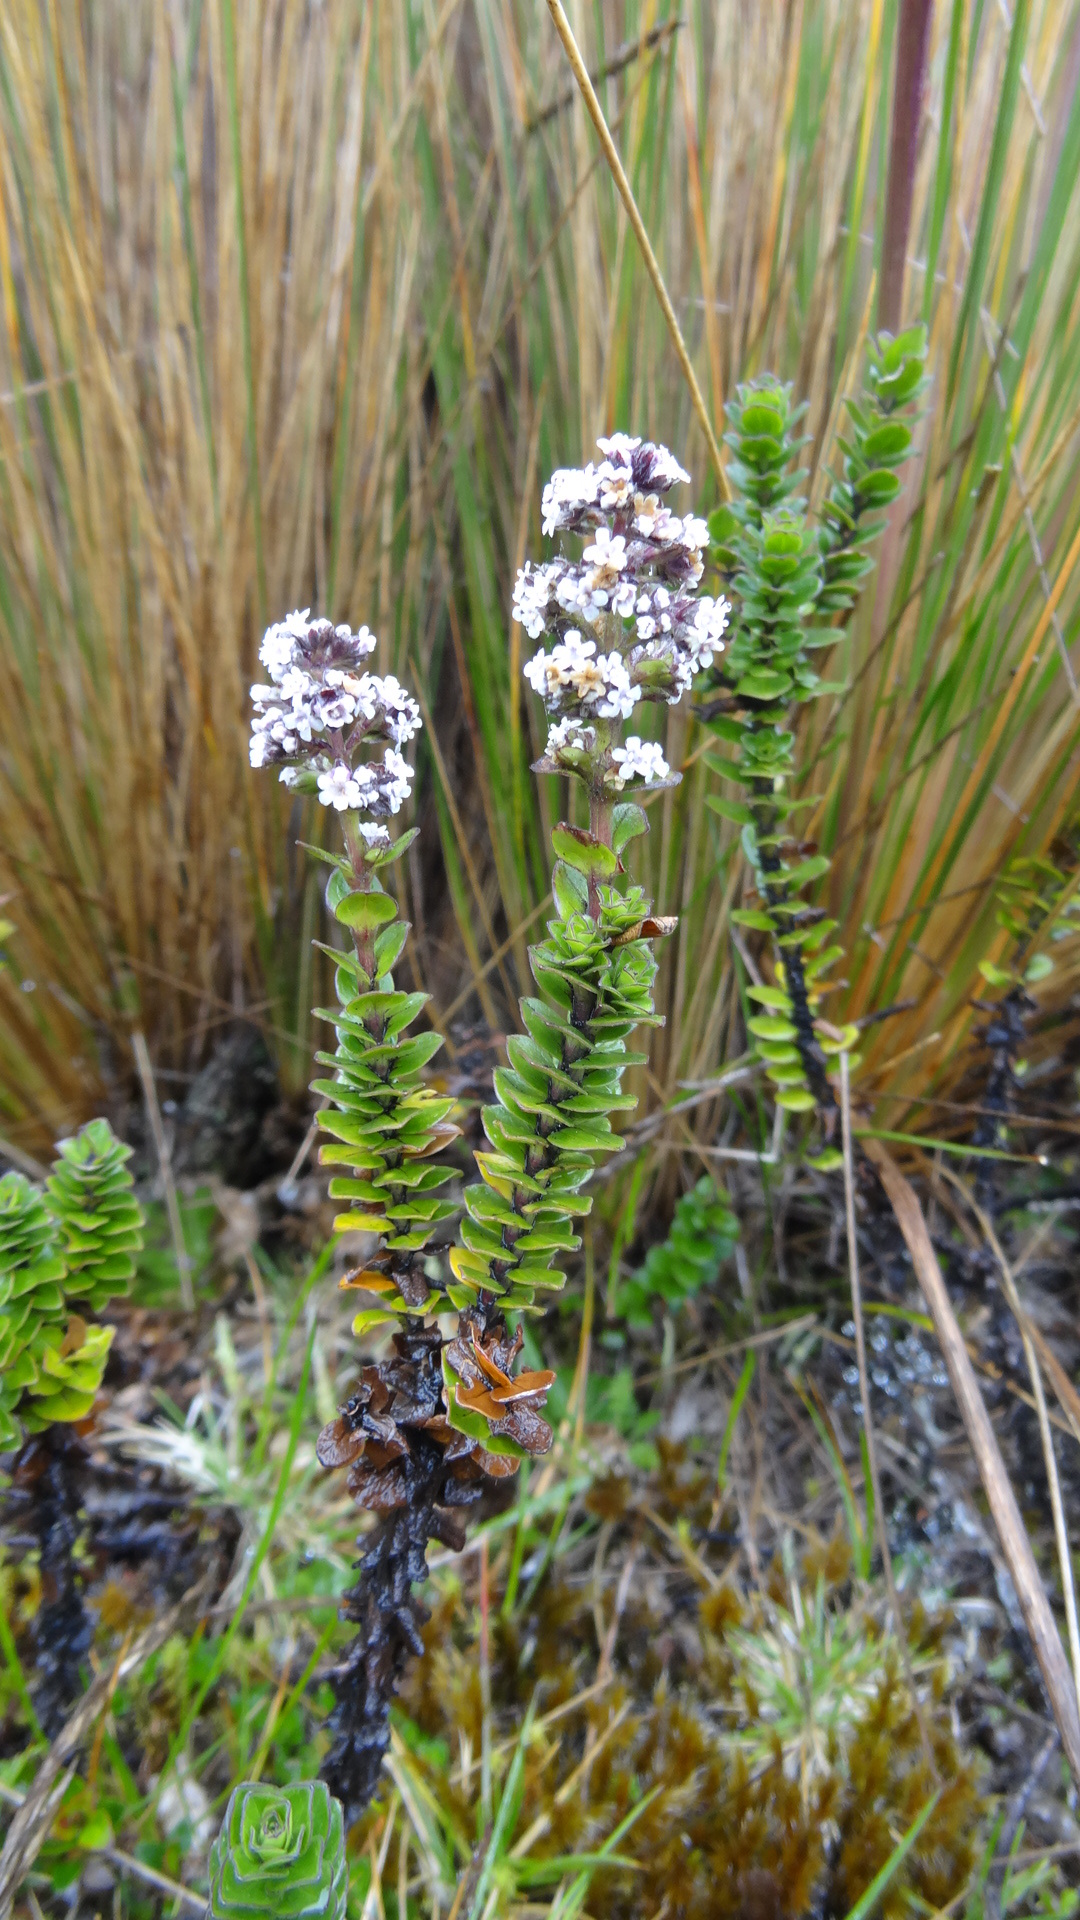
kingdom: Plantae
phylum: Tracheophyta
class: Magnoliopsida
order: Dipsacales
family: Caprifoliaceae
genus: Valeriana
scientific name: Valeriana microphylla
